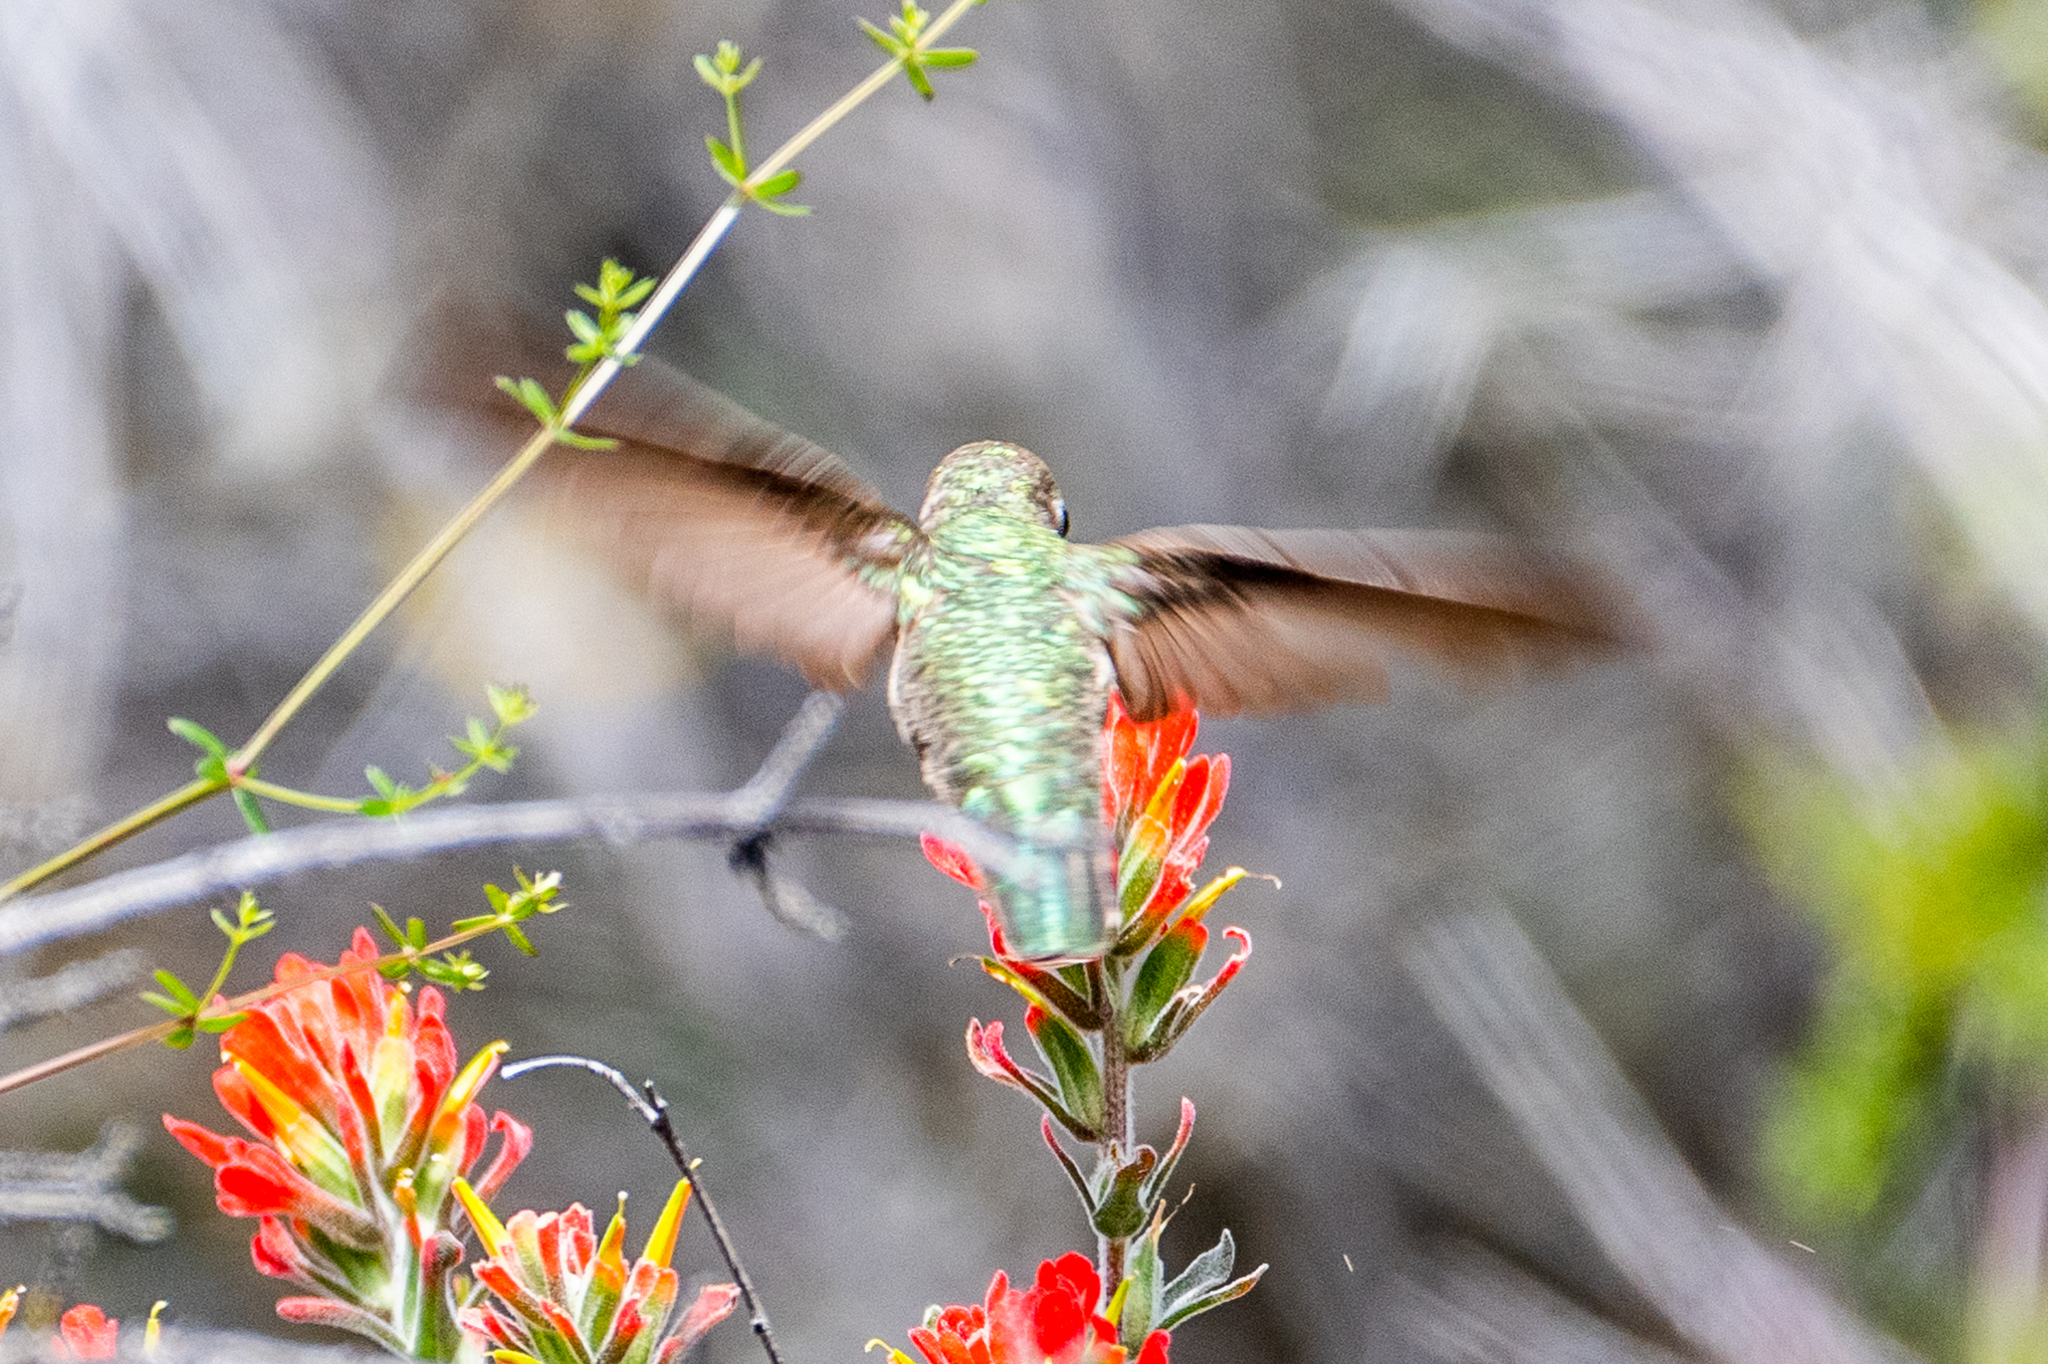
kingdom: Animalia
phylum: Chordata
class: Aves
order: Apodiformes
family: Trochilidae
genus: Calypte
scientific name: Calypte anna
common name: Anna's hummingbird
